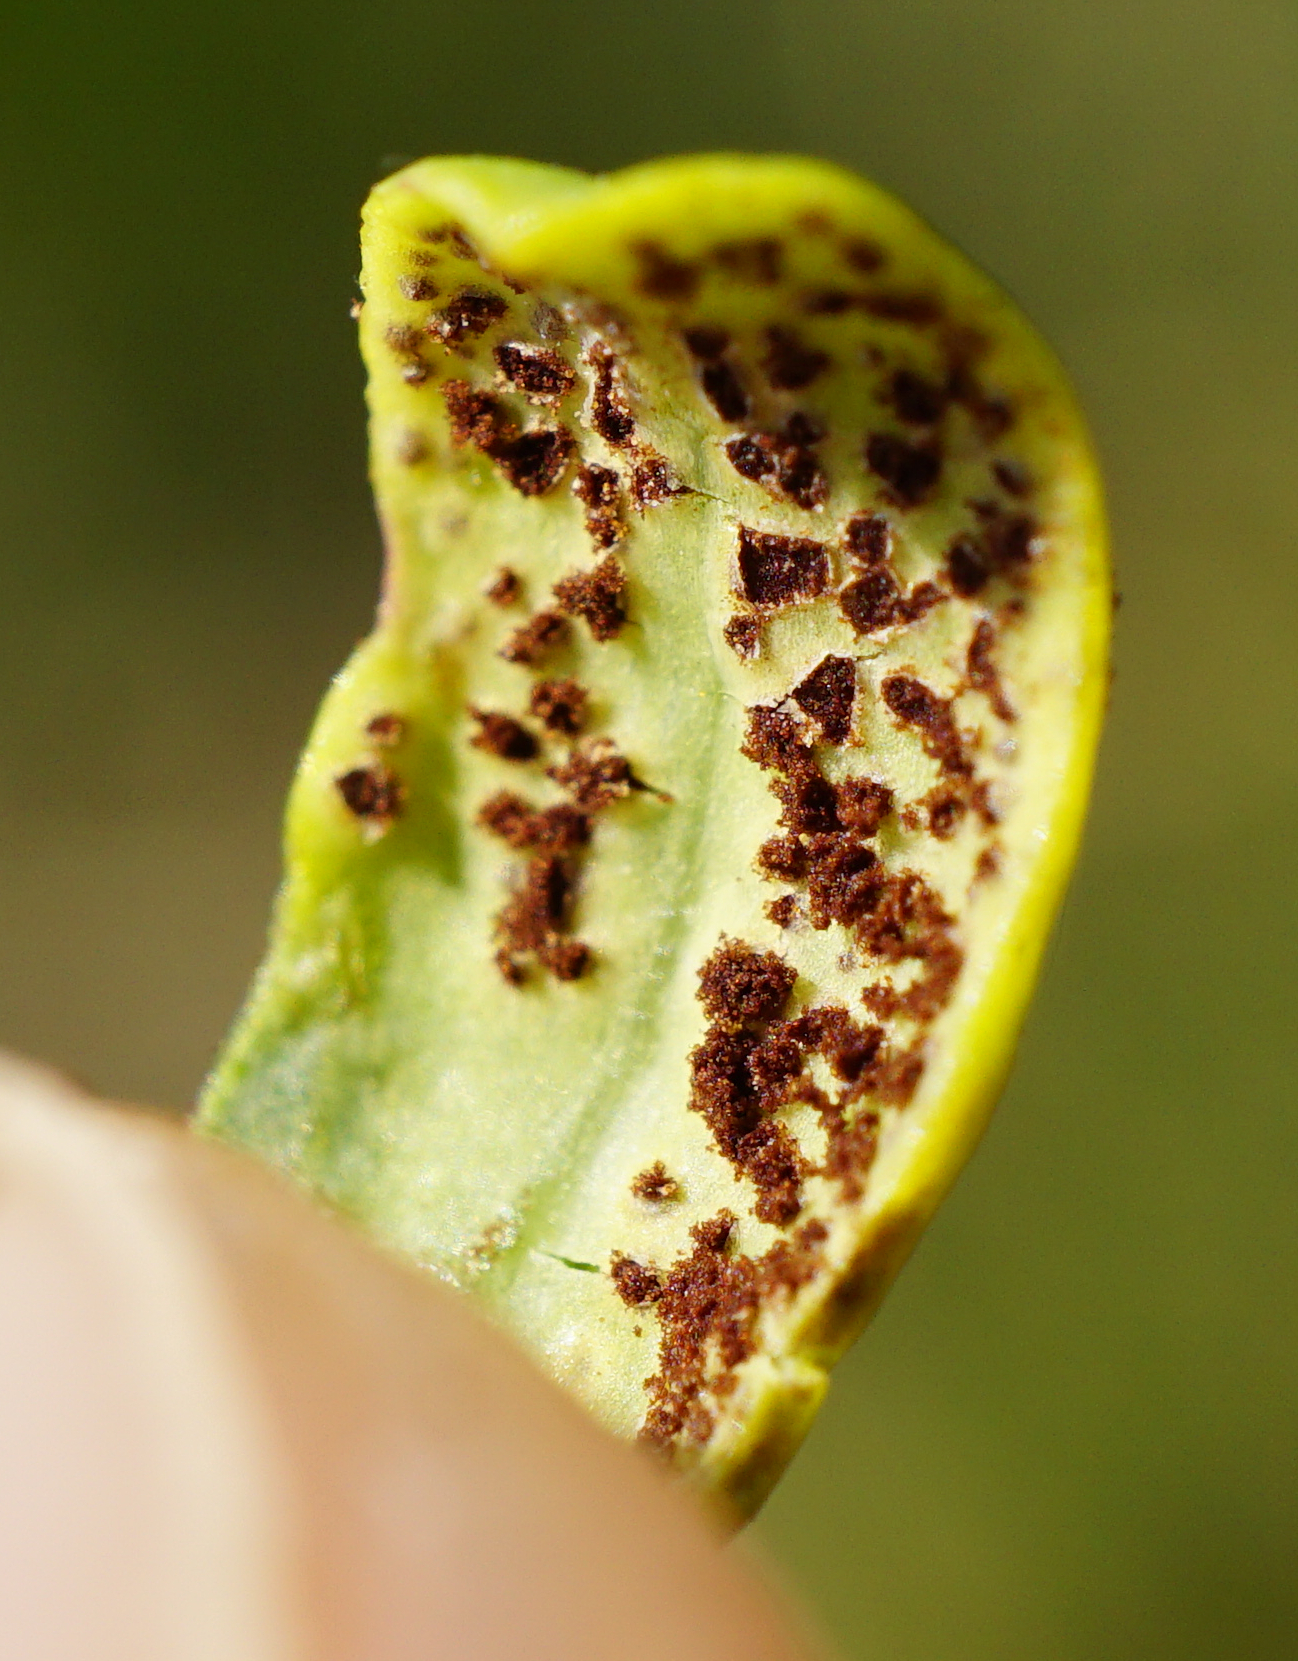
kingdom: Fungi
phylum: Basidiomycota
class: Pucciniomycetes
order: Pucciniales
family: Pucciniaceae
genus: Uromyces
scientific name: Uromyces
